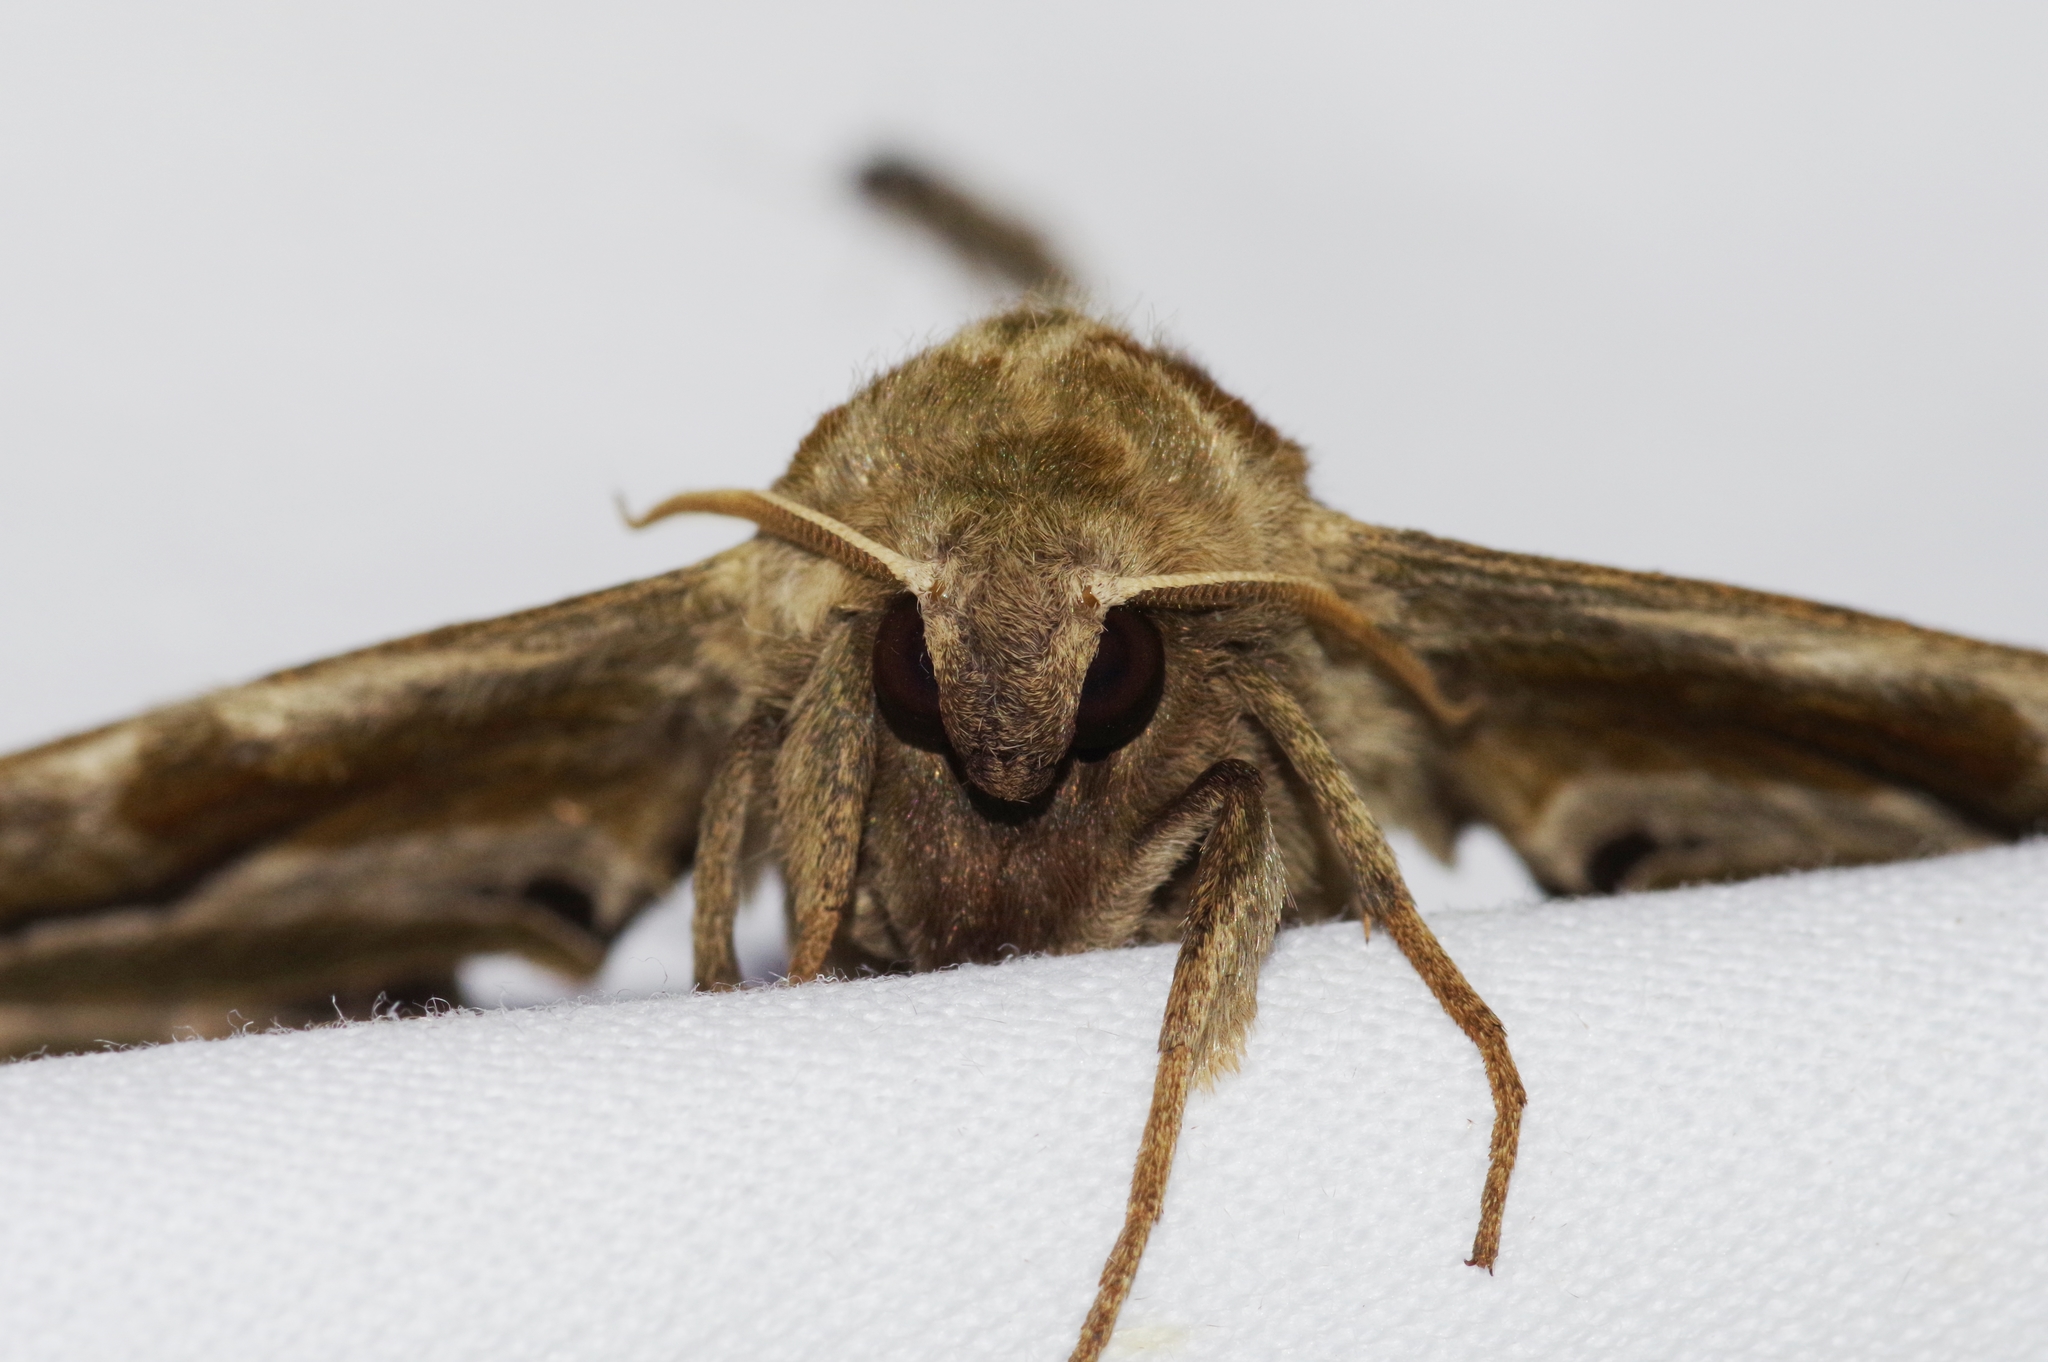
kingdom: Animalia
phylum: Arthropoda
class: Insecta
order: Lepidoptera
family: Sphingidae
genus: Parum
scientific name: Parum colligata
